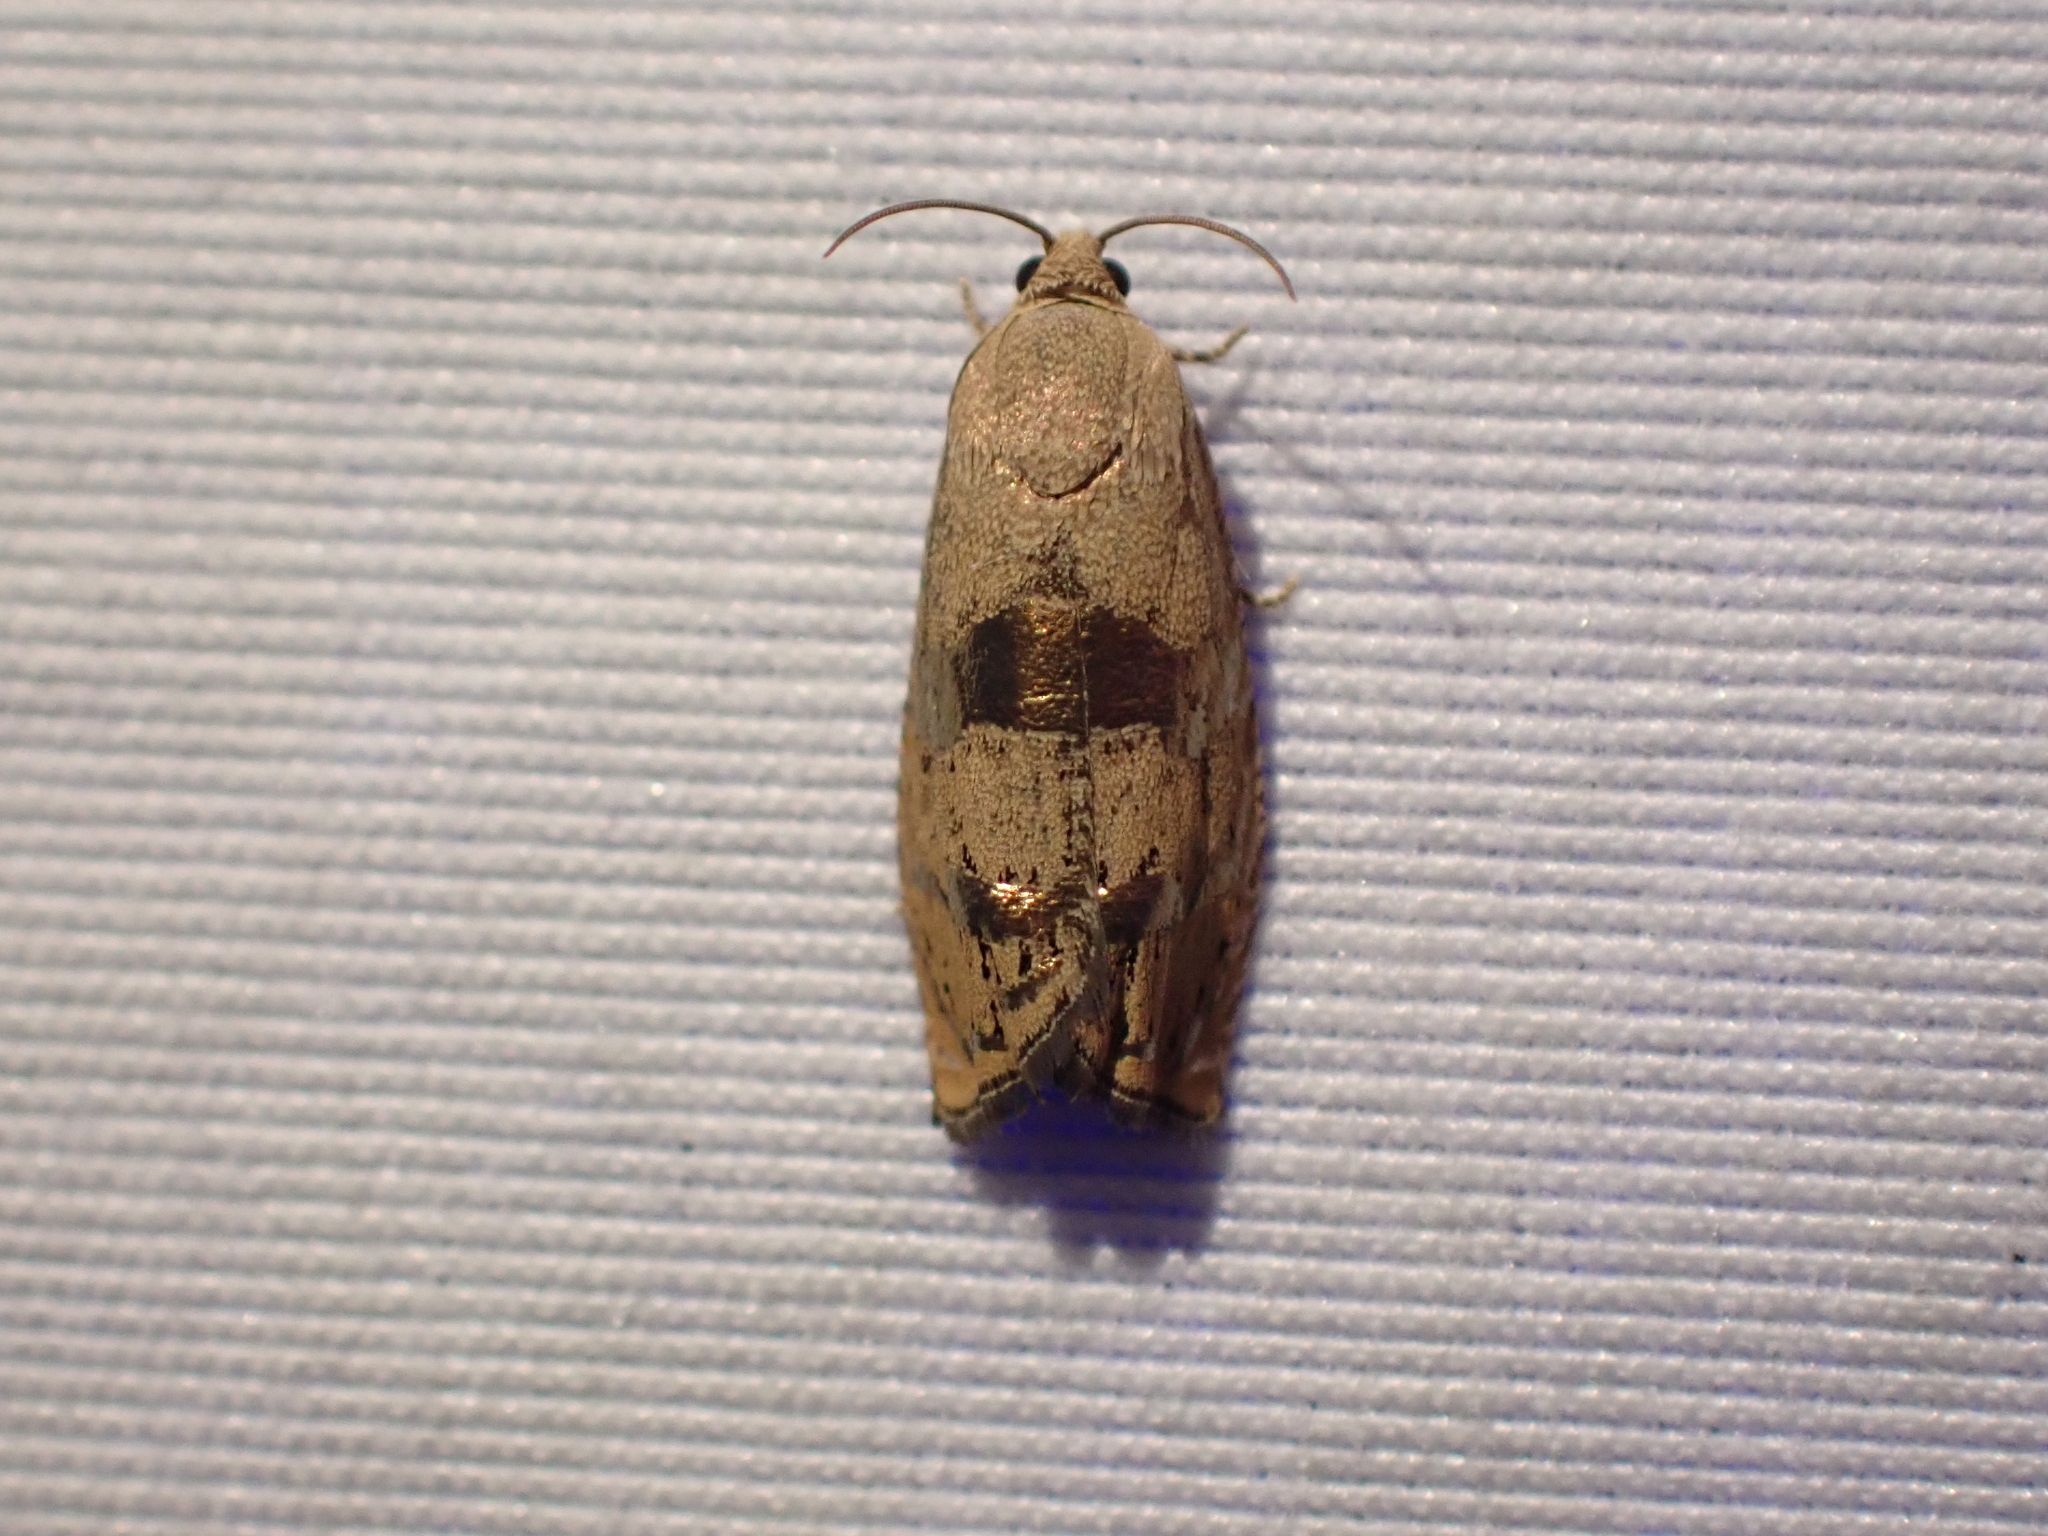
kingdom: Animalia
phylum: Arthropoda
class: Insecta
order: Lepidoptera
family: Tortricidae
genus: Cydia
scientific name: Cydia latiferreana
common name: Filbertworm moth
